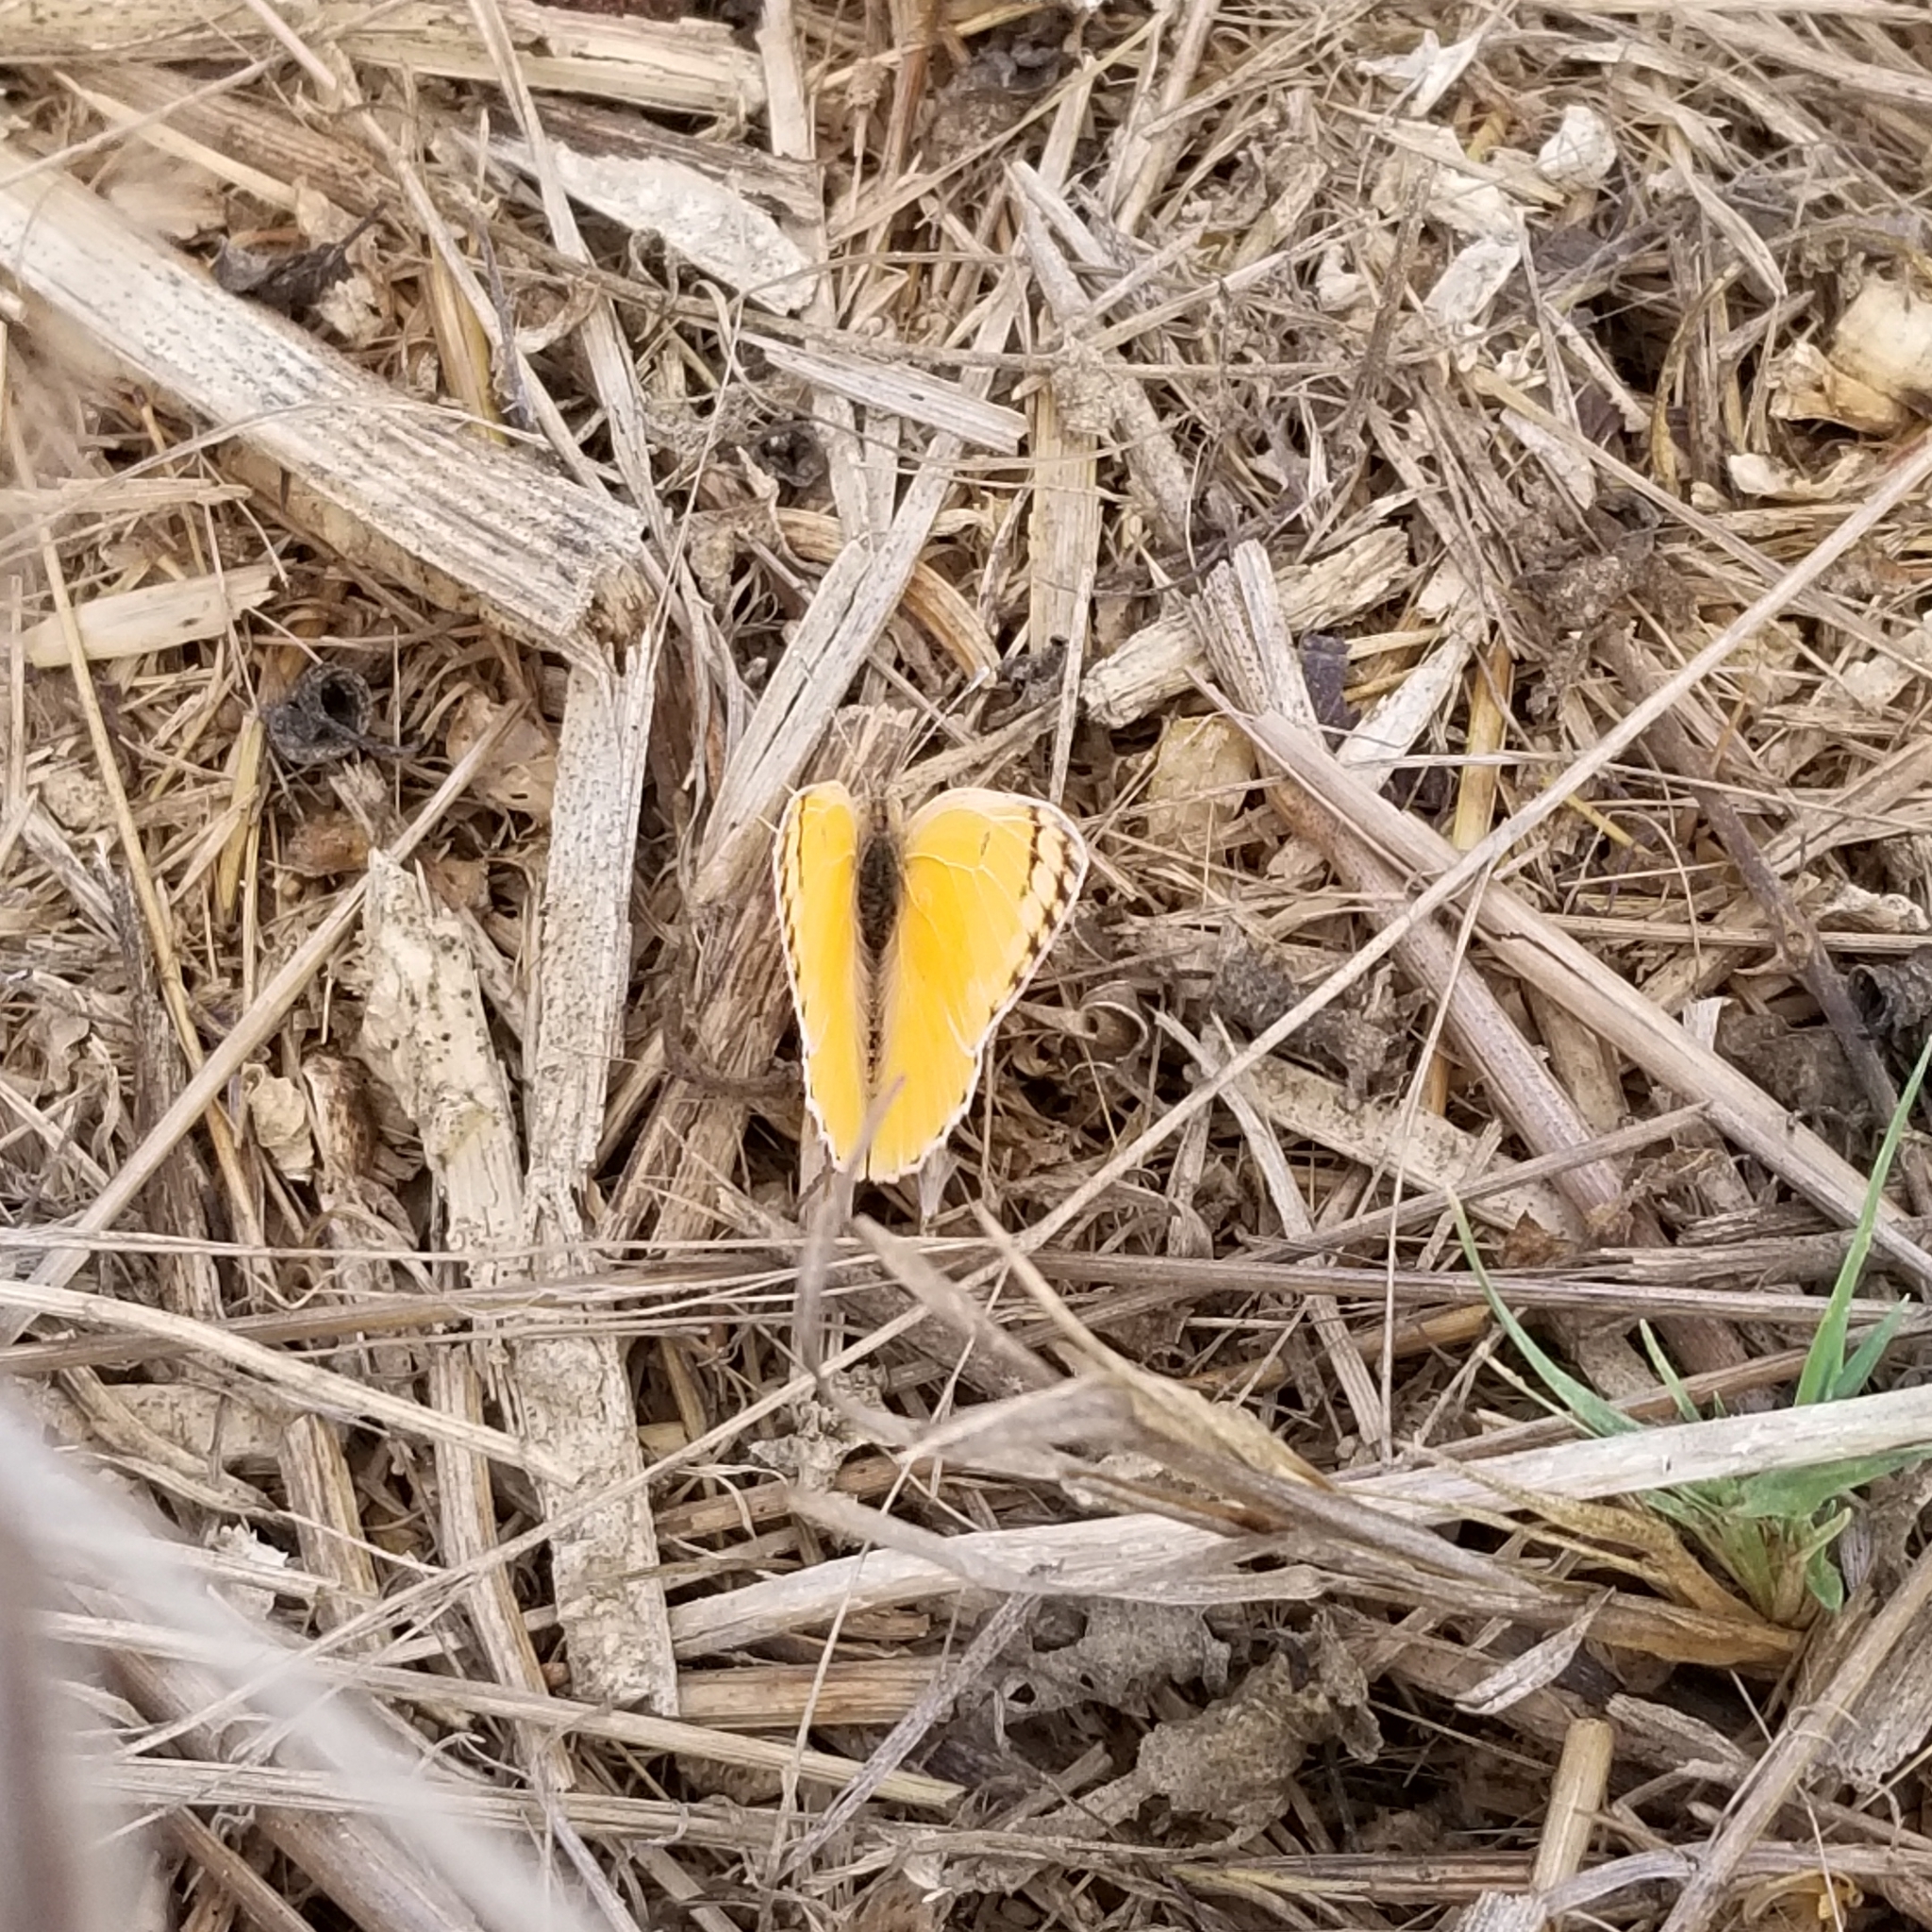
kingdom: Animalia
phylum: Arthropoda
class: Insecta
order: Lepidoptera
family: Pieridae
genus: Colotis
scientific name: Colotis fausta
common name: Large salmon arab
